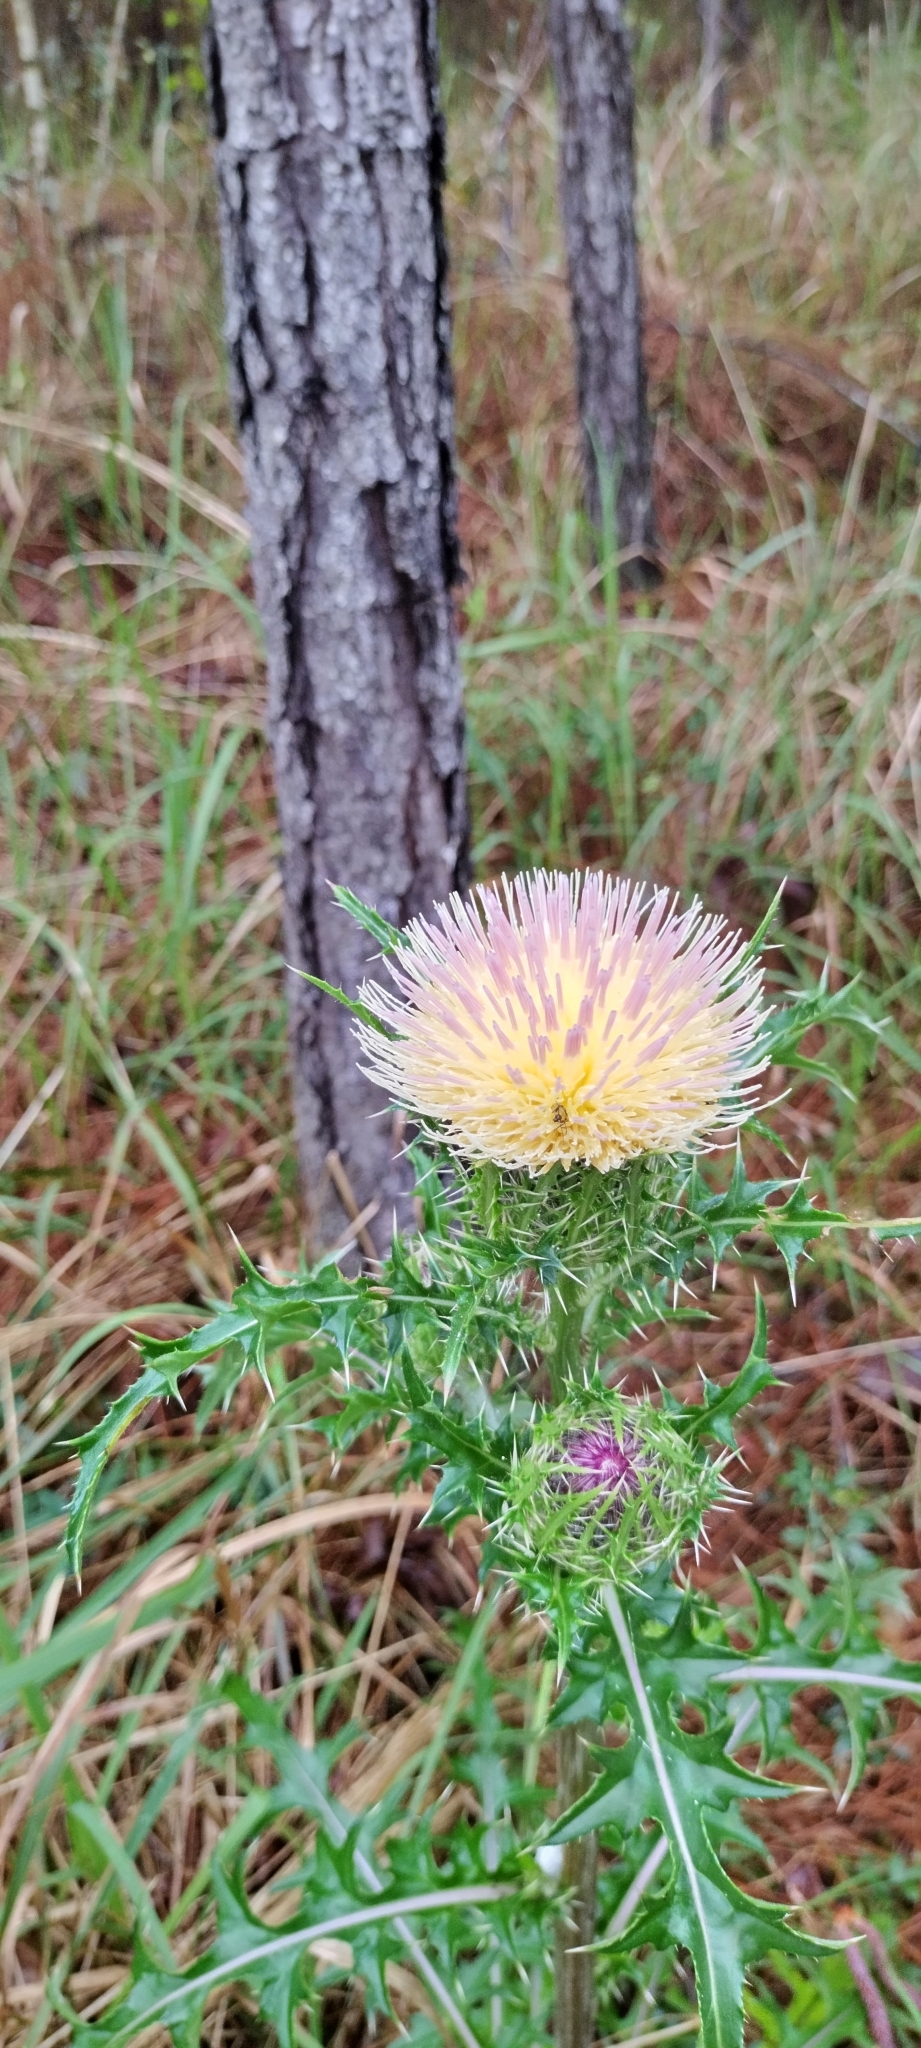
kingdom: Plantae
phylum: Tracheophyta
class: Magnoliopsida
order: Asterales
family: Asteraceae
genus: Cirsium
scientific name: Cirsium horridulum
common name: Bristly thistle
